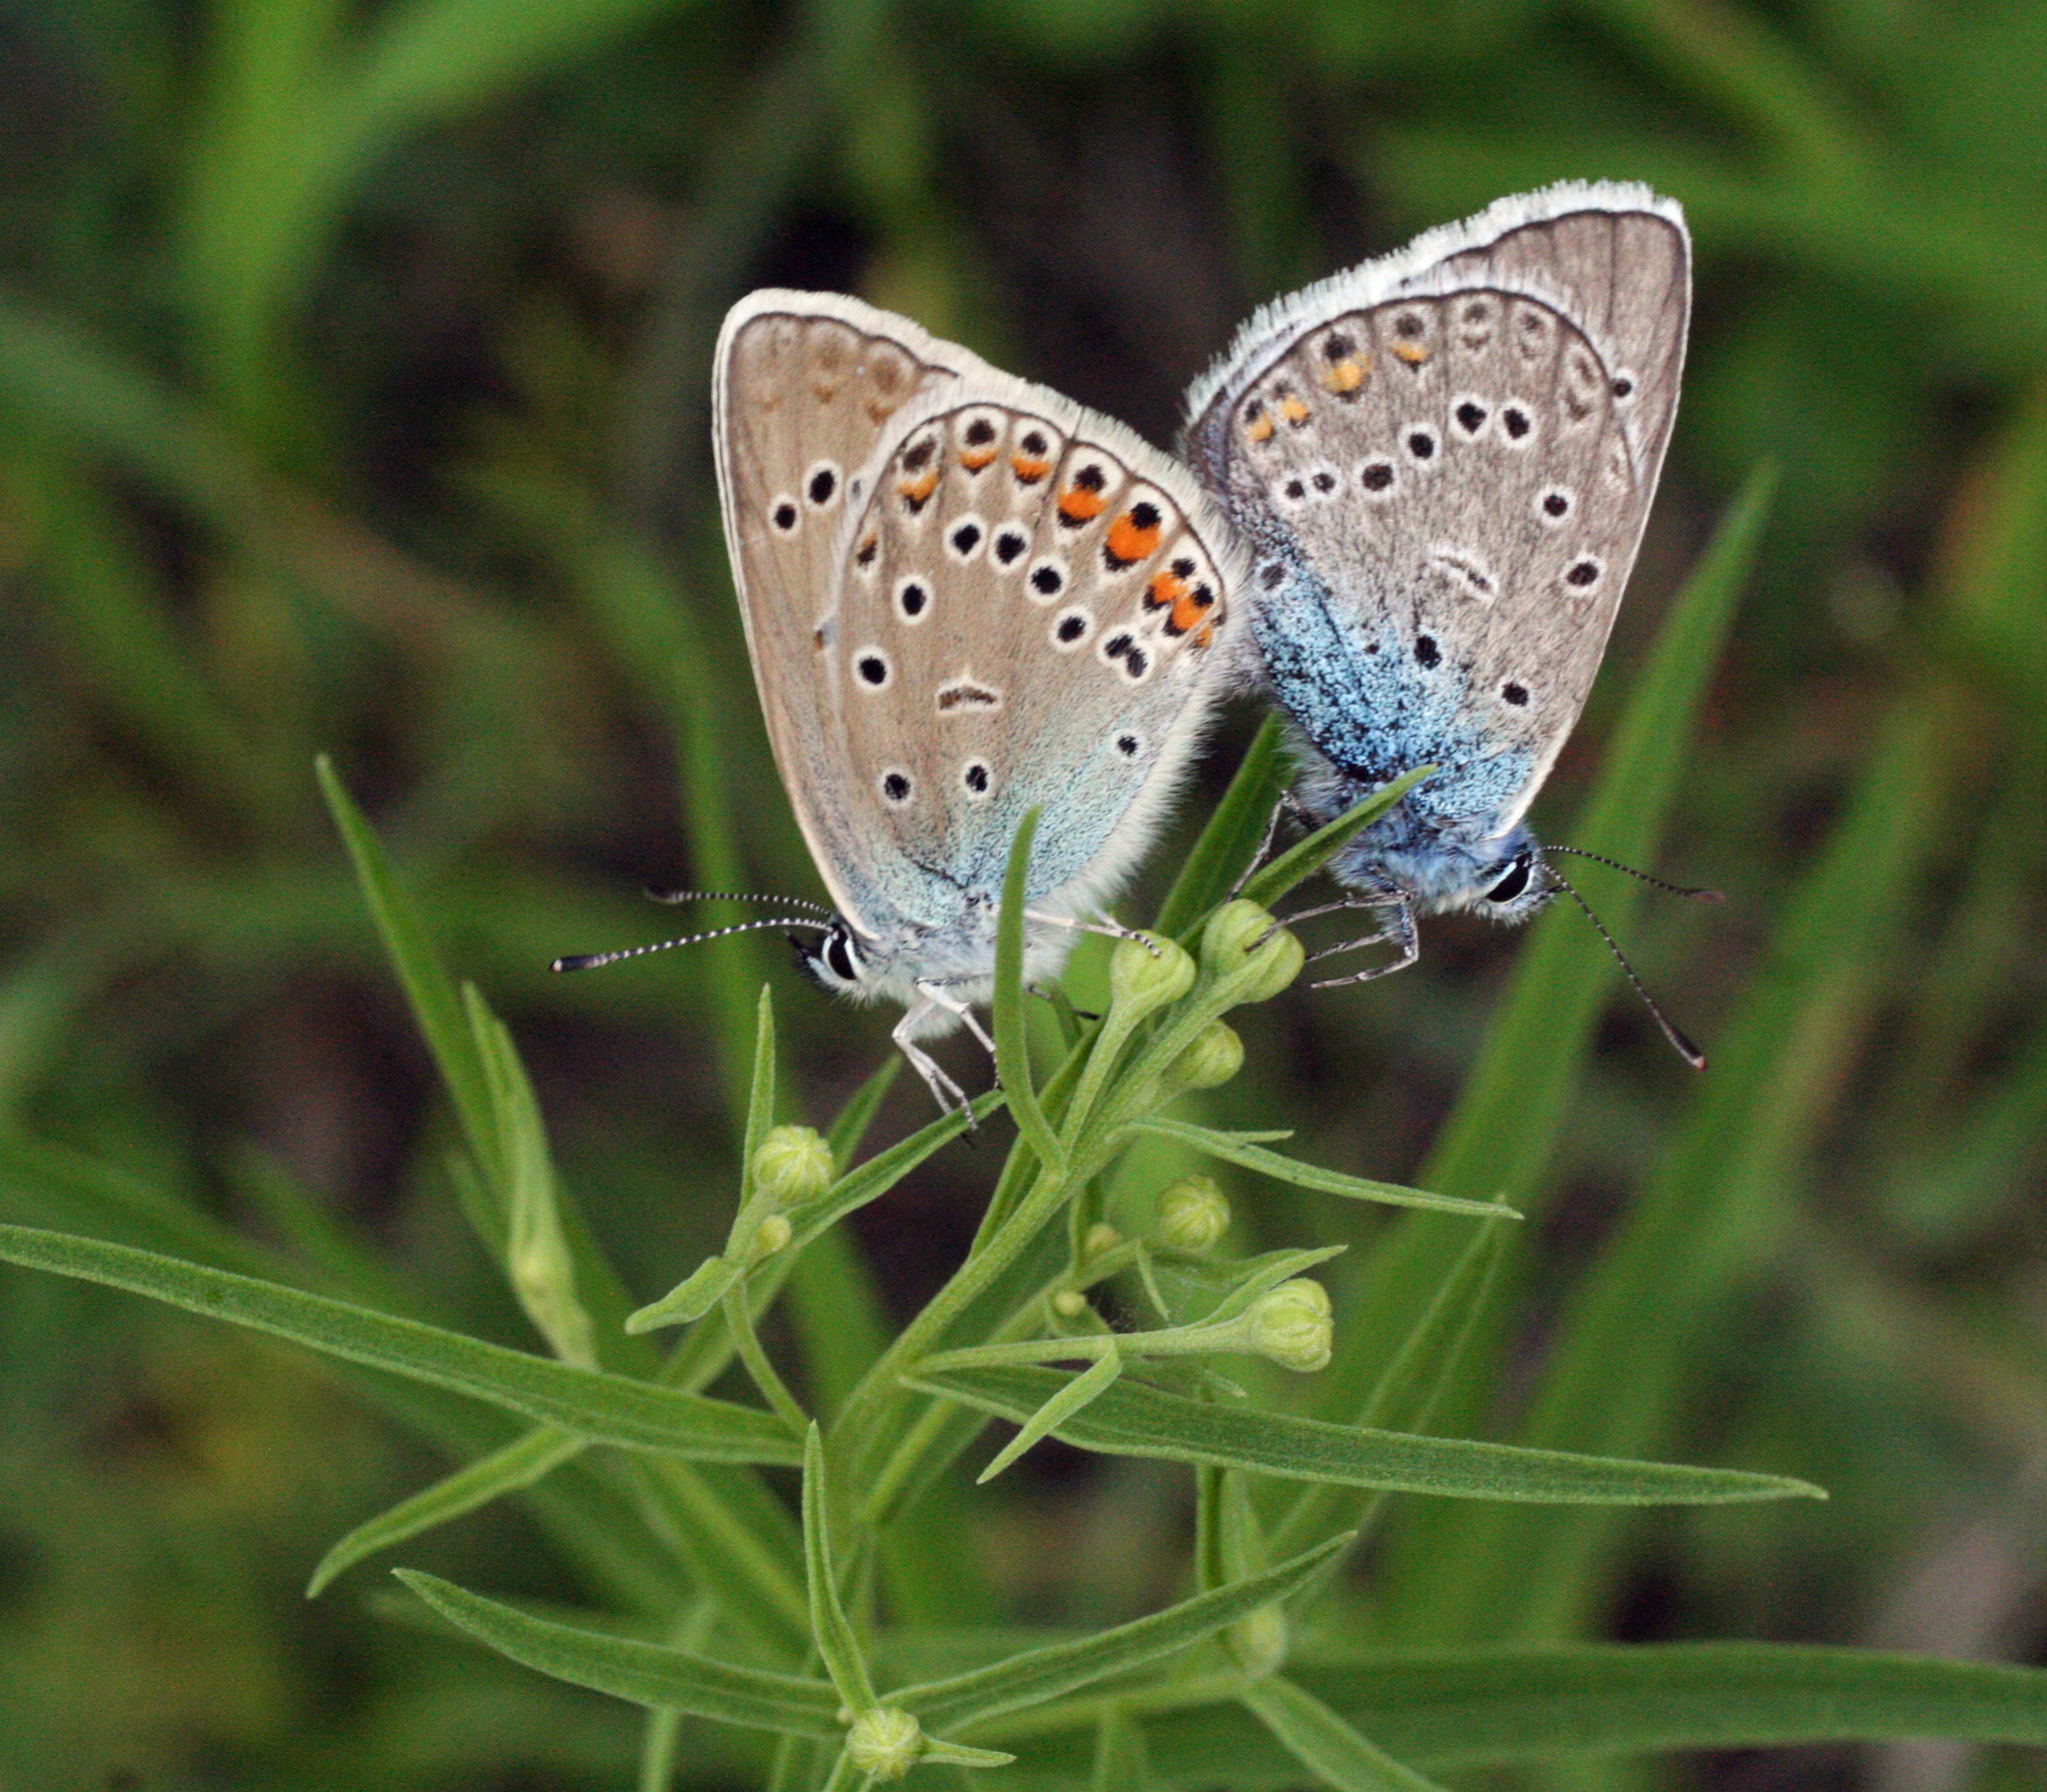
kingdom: Animalia
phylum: Arthropoda
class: Insecta
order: Lepidoptera
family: Lycaenidae
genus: Plebejus
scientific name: Plebejus amanda
